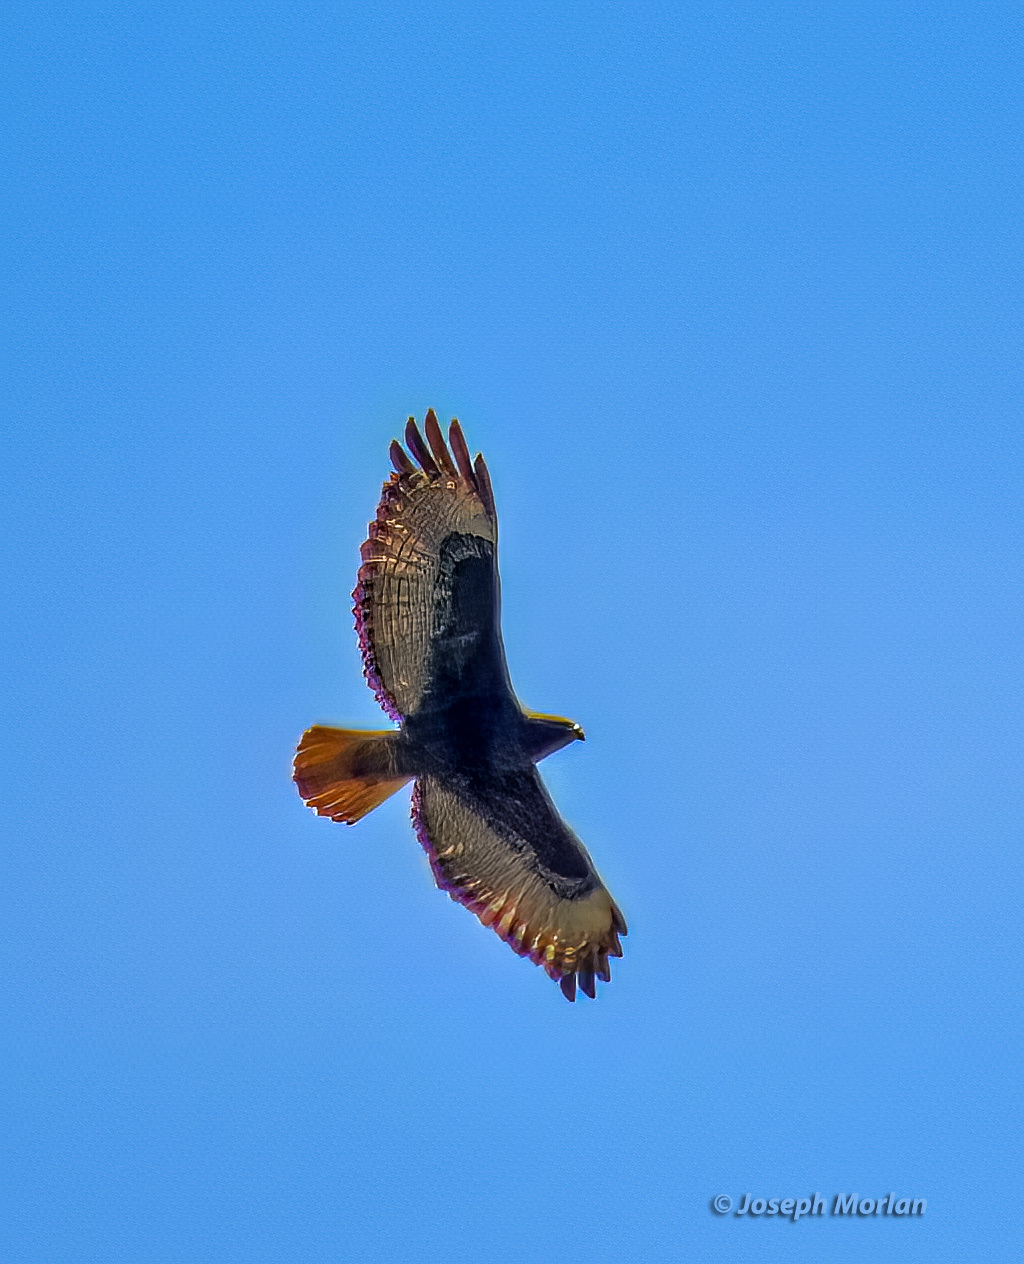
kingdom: Animalia
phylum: Chordata
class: Aves
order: Accipitriformes
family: Accipitridae
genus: Buteo
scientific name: Buteo jamaicensis
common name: Red-tailed hawk
